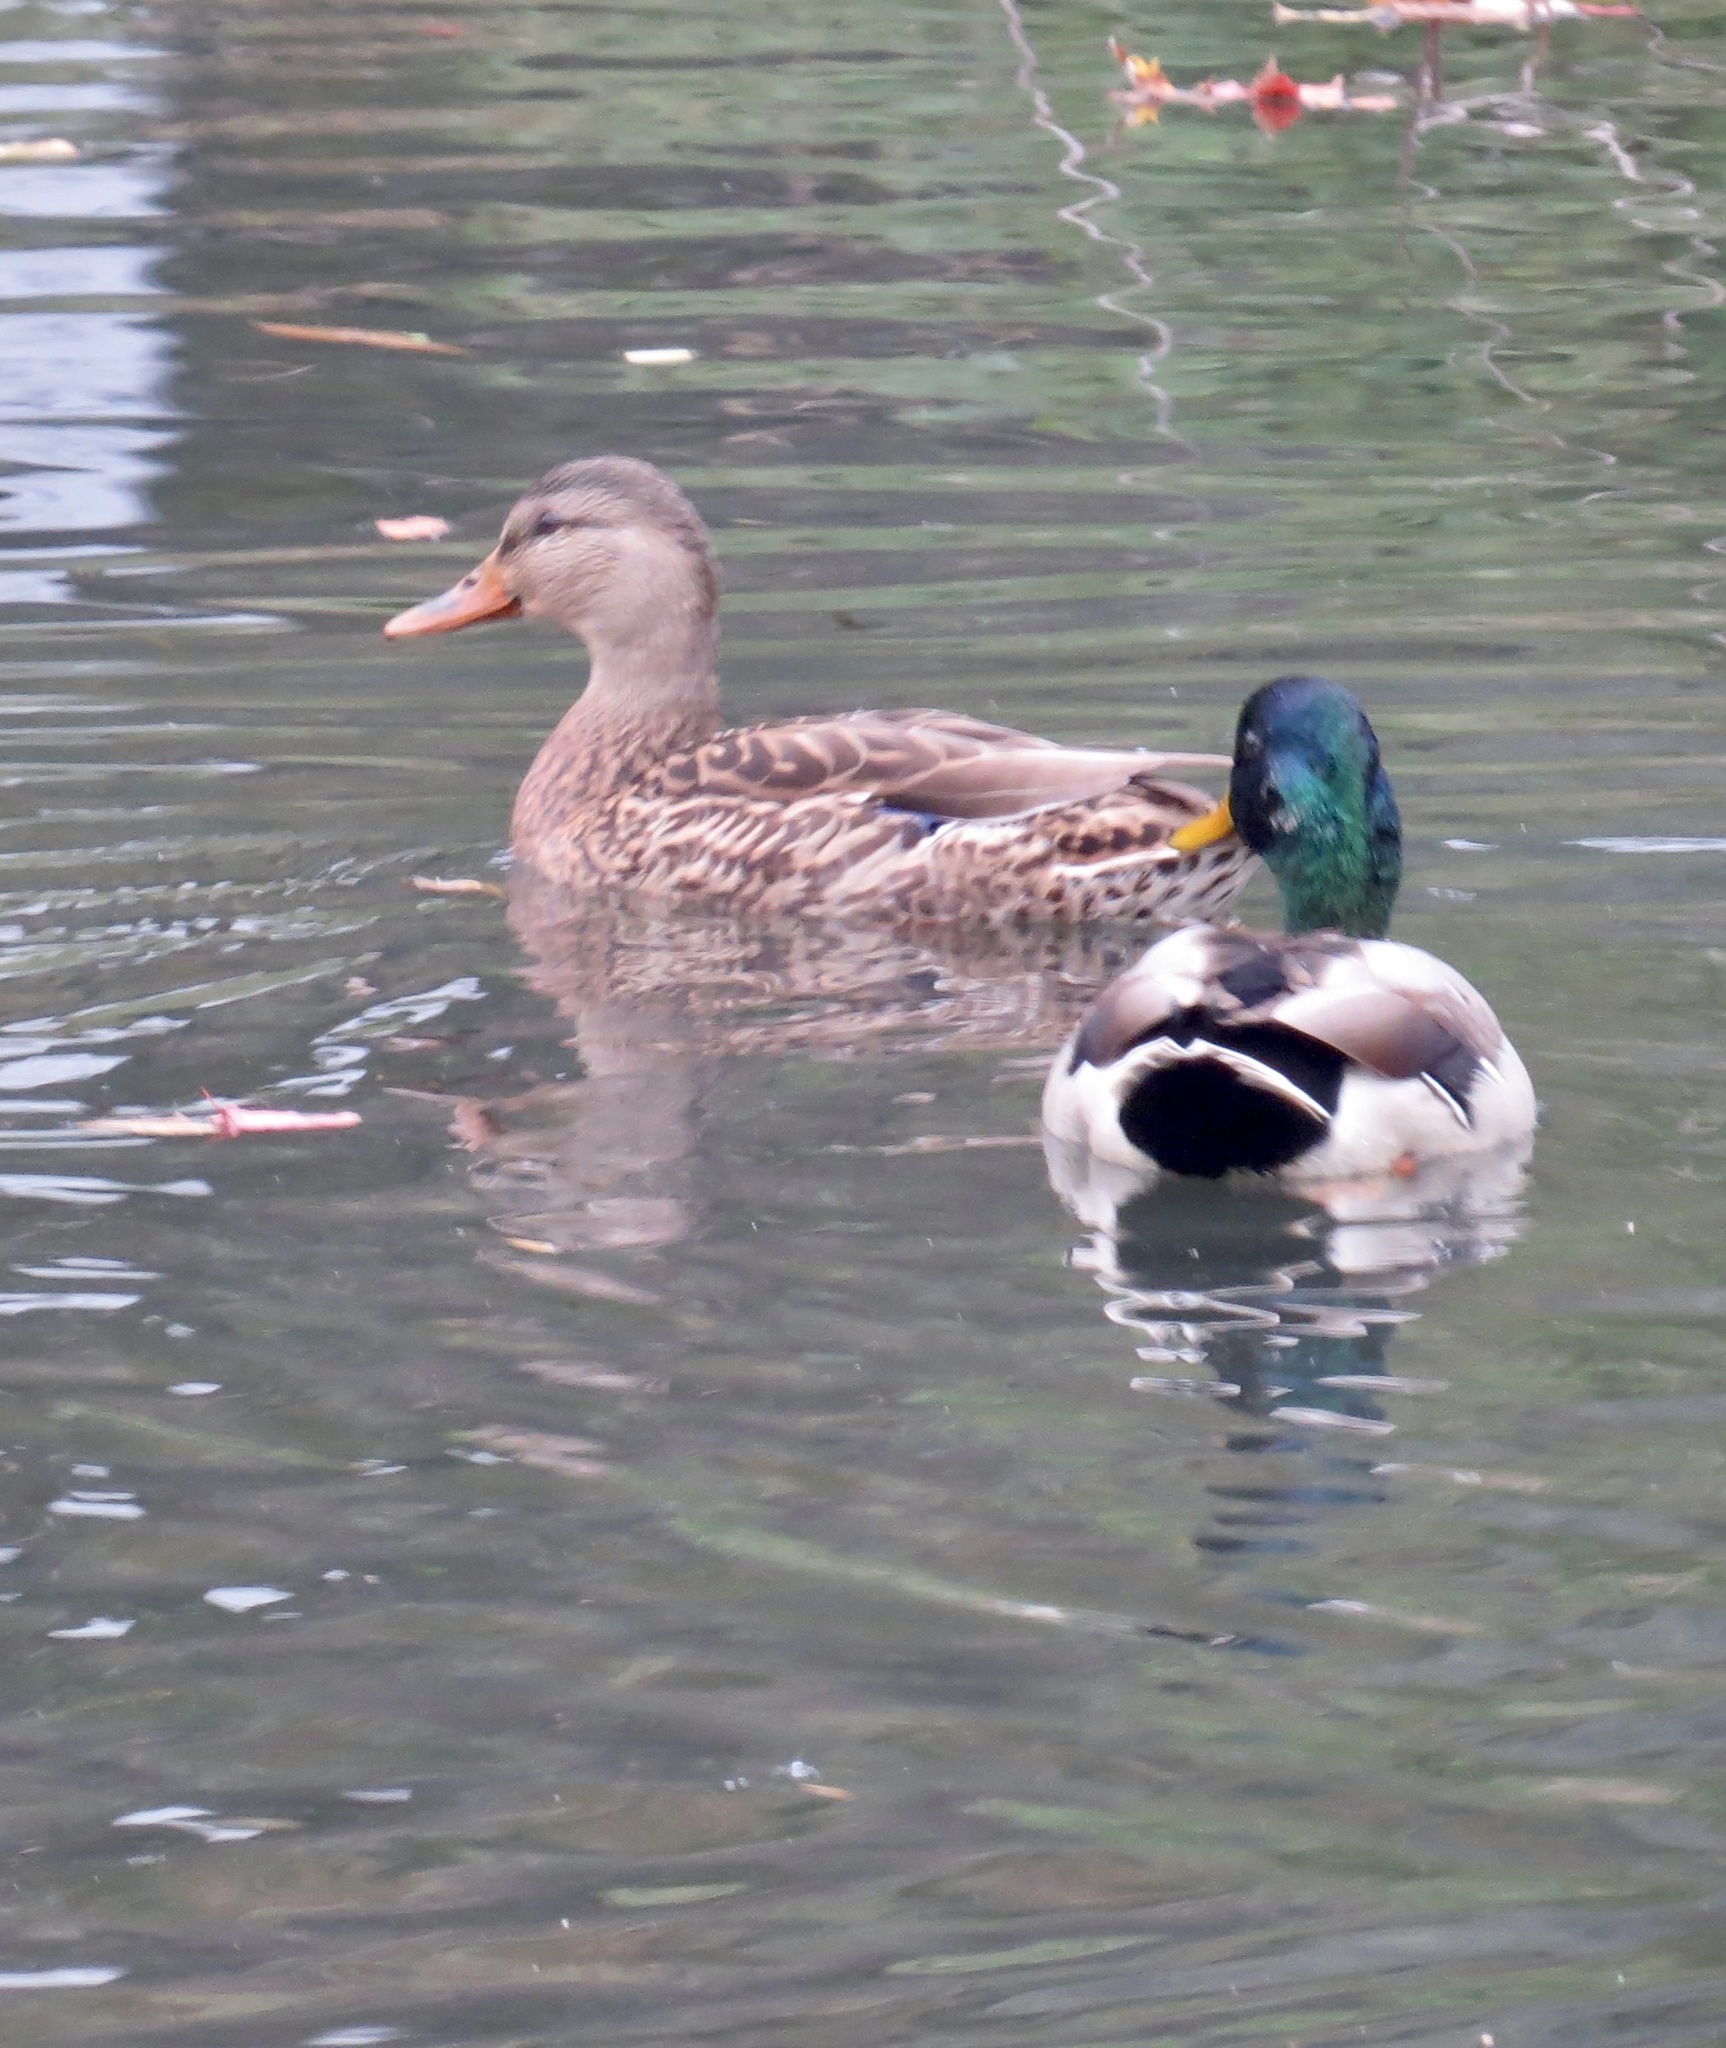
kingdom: Animalia
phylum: Chordata
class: Aves
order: Anseriformes
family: Anatidae
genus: Anas
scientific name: Anas platyrhynchos
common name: Mallard
